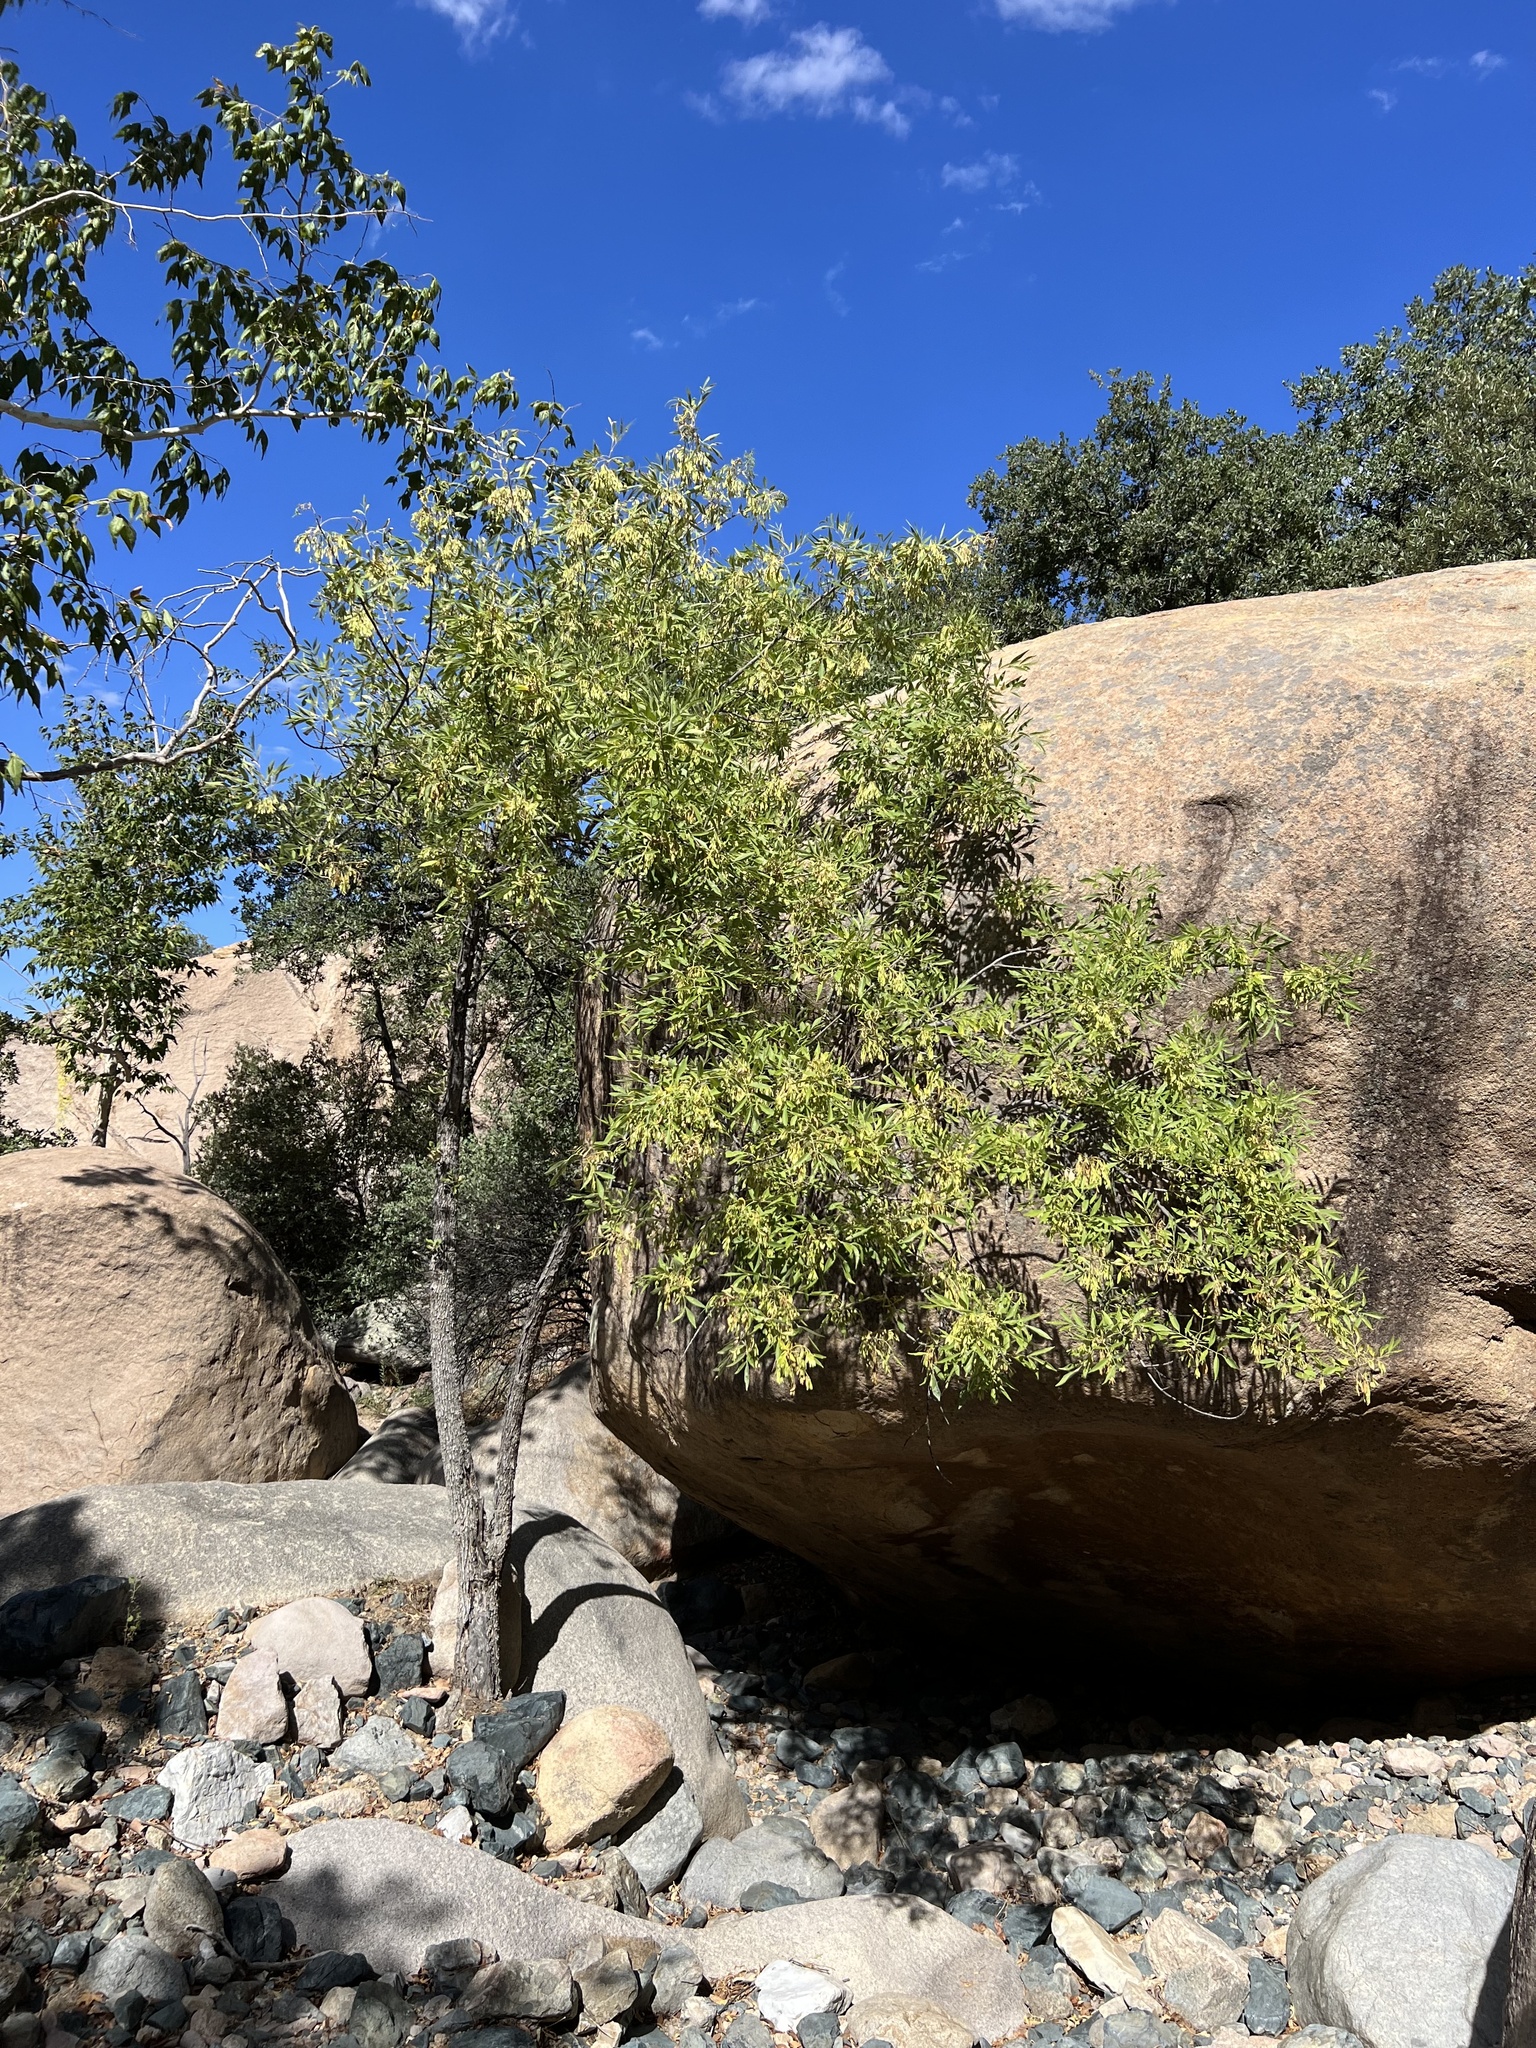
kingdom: Plantae
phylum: Tracheophyta
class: Magnoliopsida
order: Lamiales
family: Oleaceae
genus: Fraxinus
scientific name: Fraxinus velutina
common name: Arizon ash
